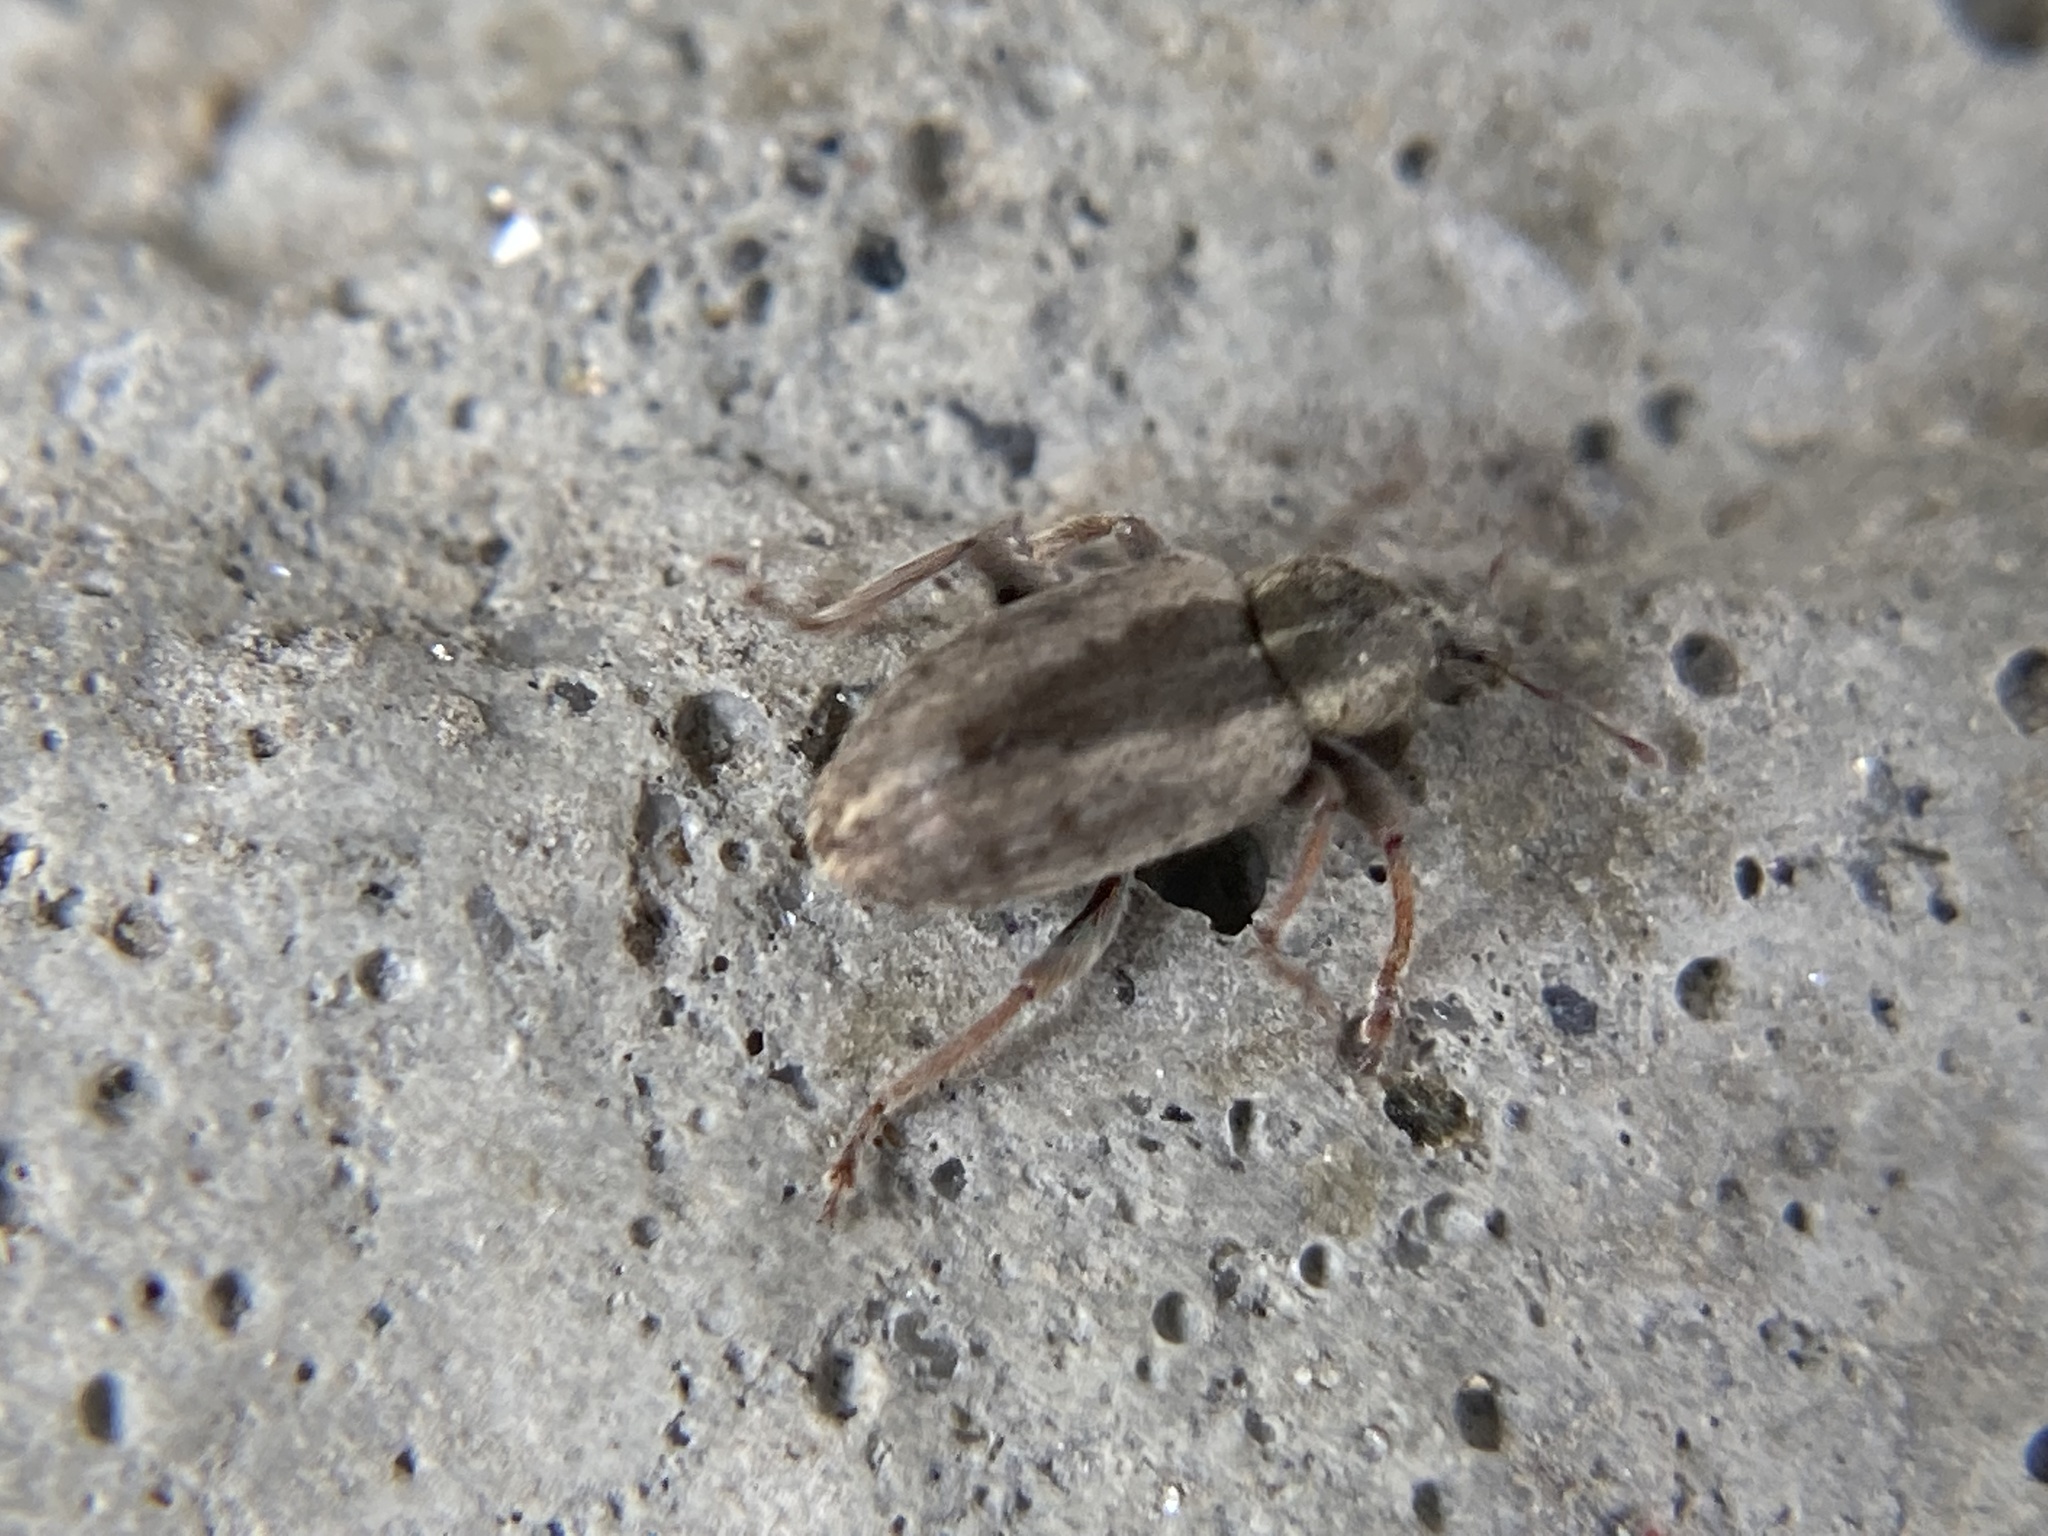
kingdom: Animalia
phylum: Arthropoda
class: Insecta
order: Coleoptera
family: Curculionidae
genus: Hypera
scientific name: Hypera postica
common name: Weevil
